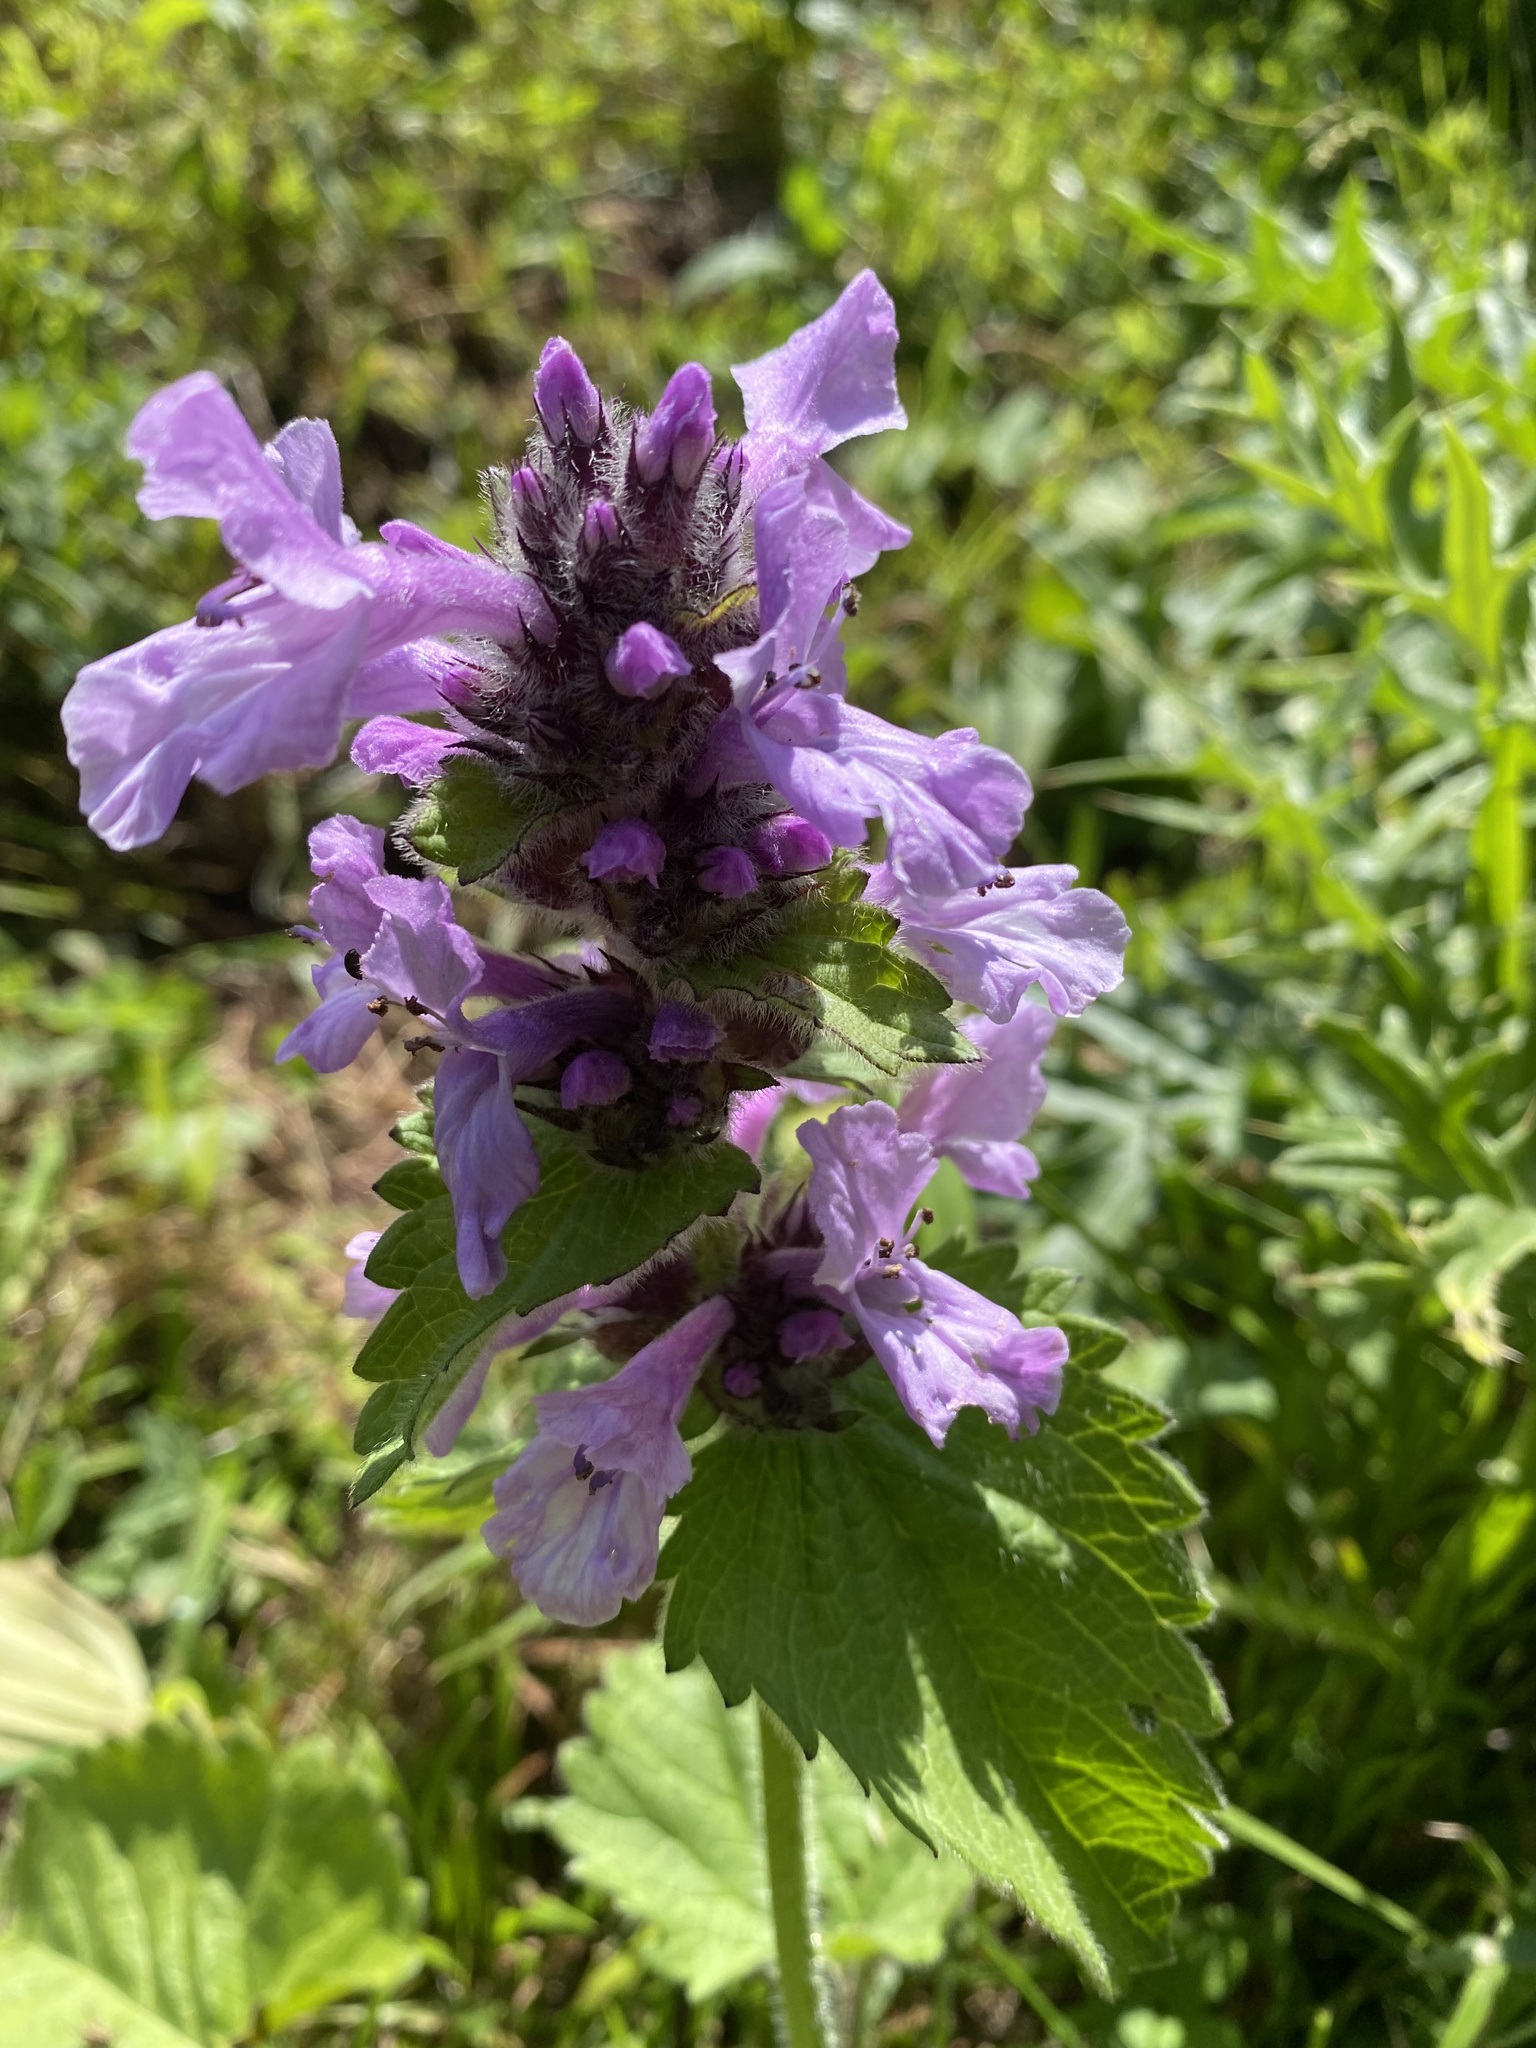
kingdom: Plantae
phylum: Tracheophyta
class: Magnoliopsida
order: Lamiales
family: Lamiaceae
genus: Betonica
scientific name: Betonica macrantha
